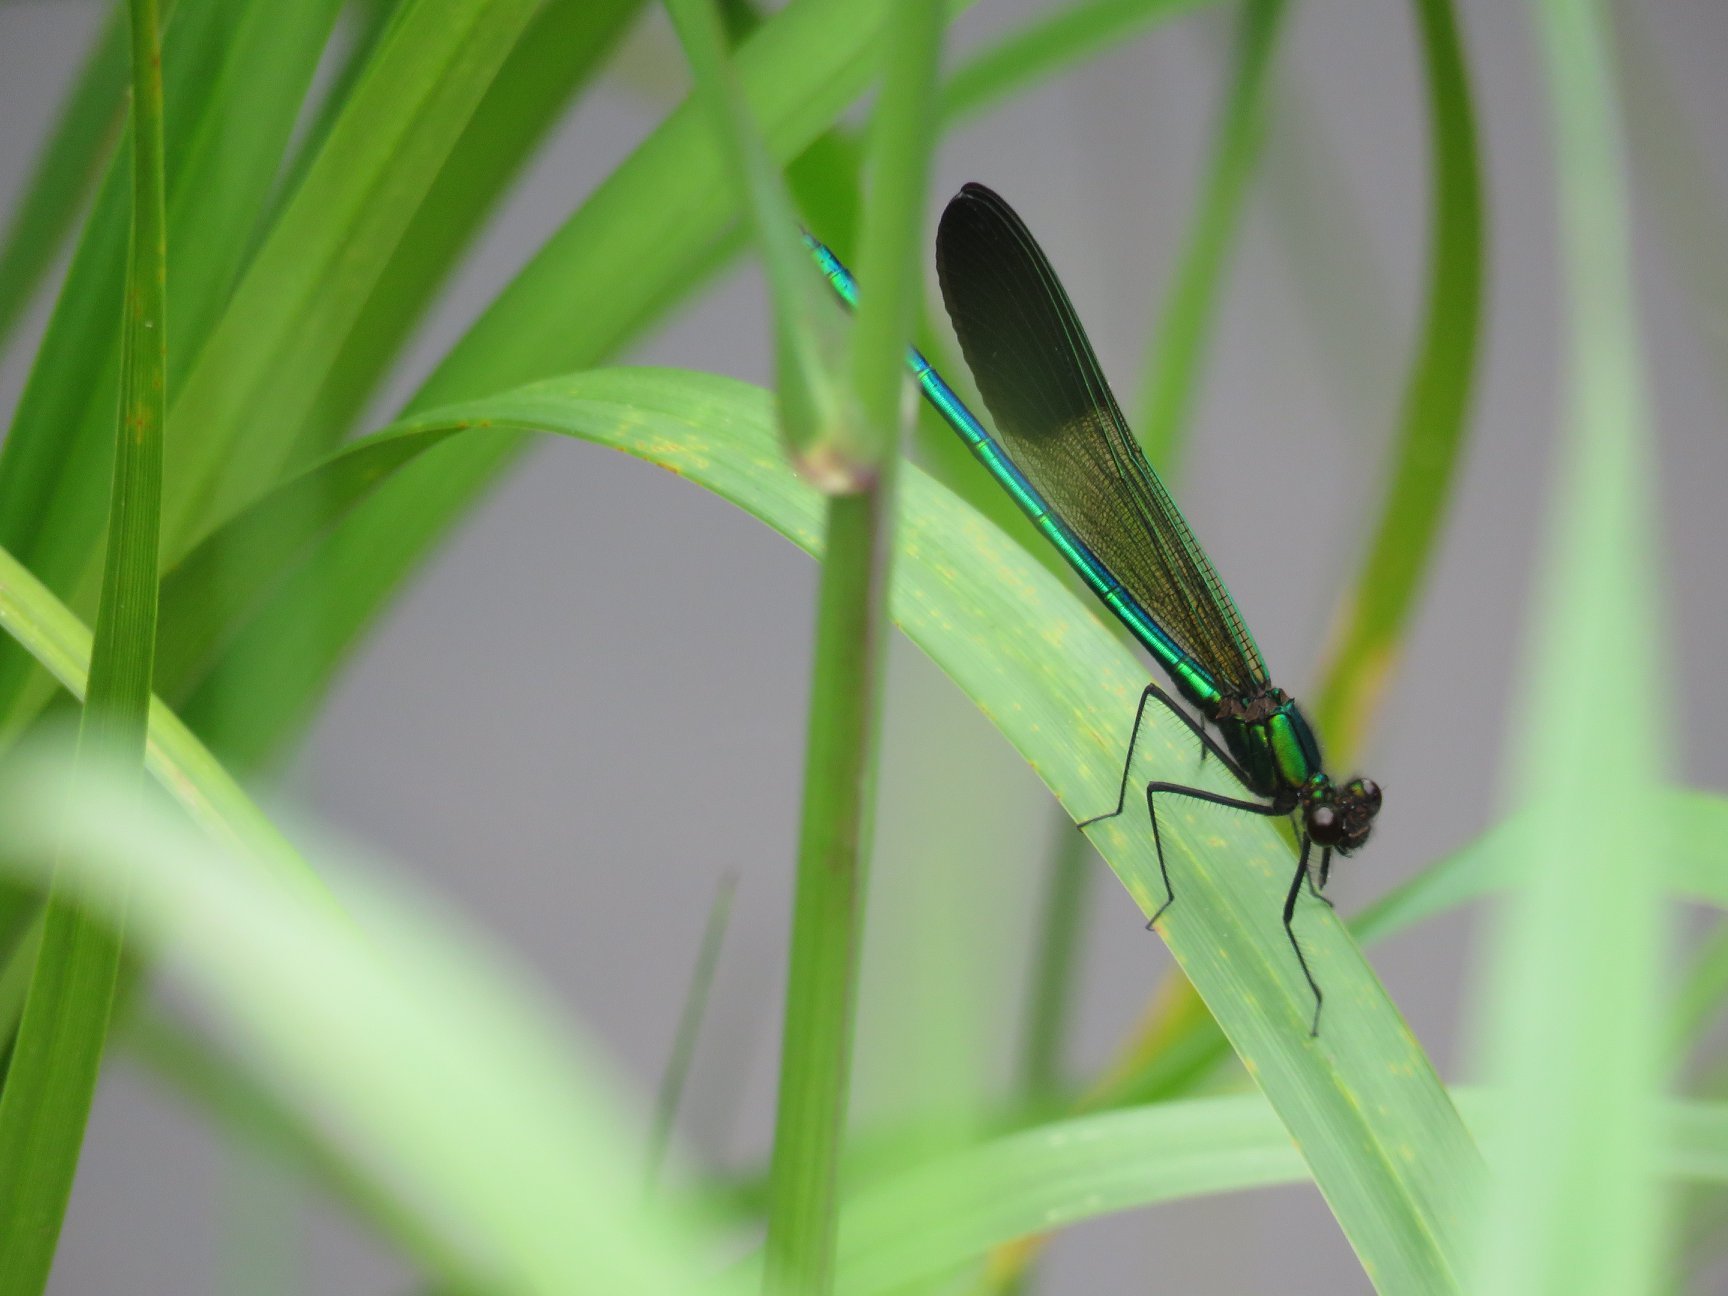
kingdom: Animalia
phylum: Arthropoda
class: Insecta
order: Odonata
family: Calopterygidae
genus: Calopteryx
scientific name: Calopteryx aequabilis
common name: River jewelwing
